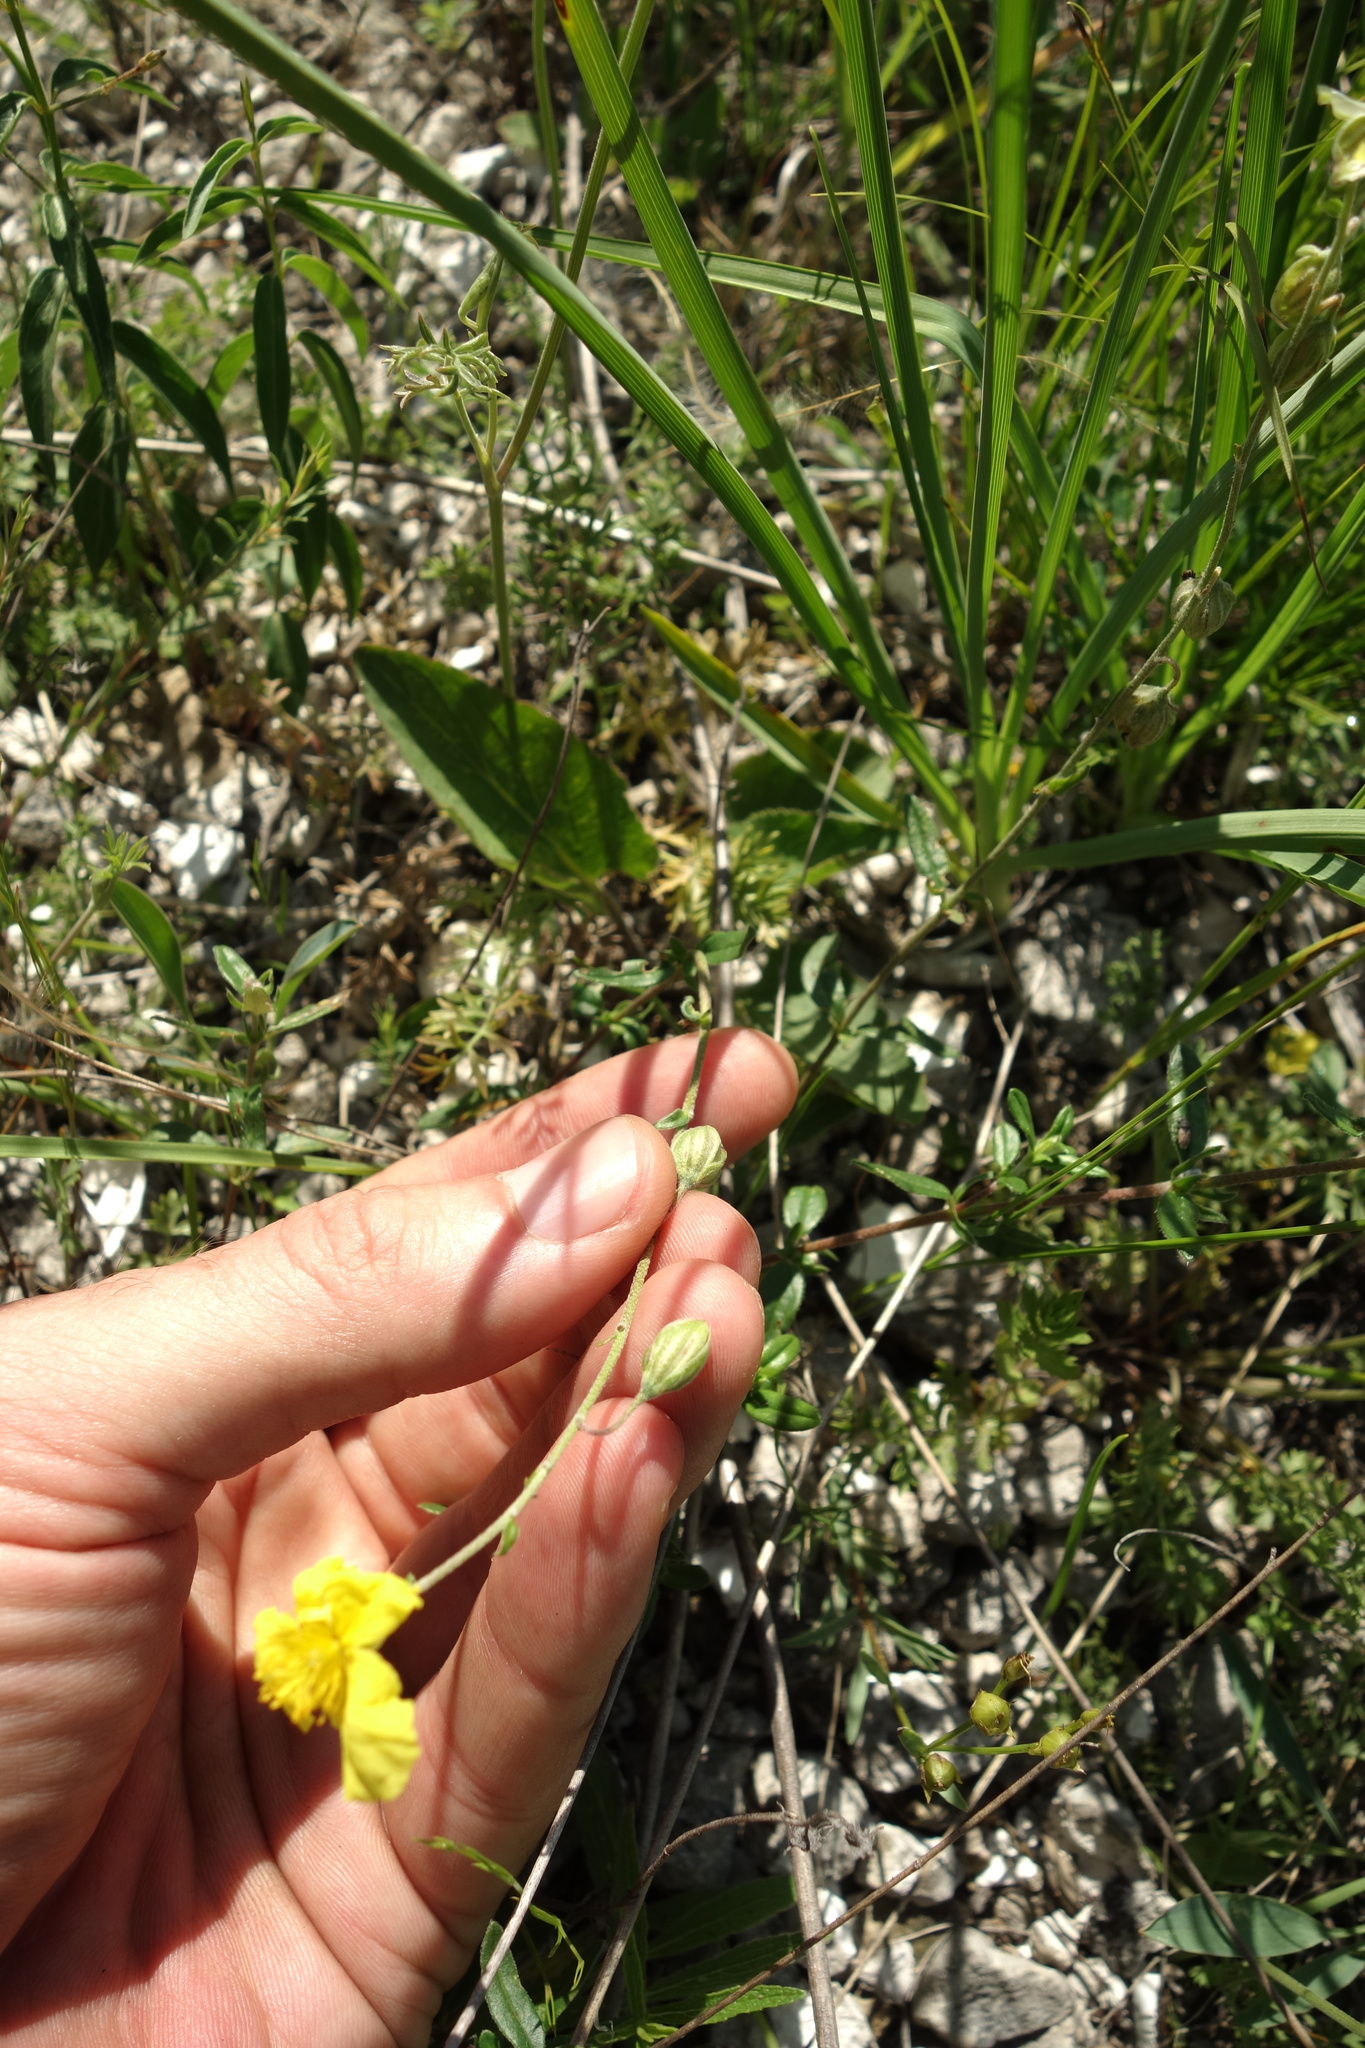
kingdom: Plantae
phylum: Tracheophyta
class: Magnoliopsida
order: Malvales
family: Cistaceae
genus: Helianthemum
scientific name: Helianthemum nummularium
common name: Common rock-rose
